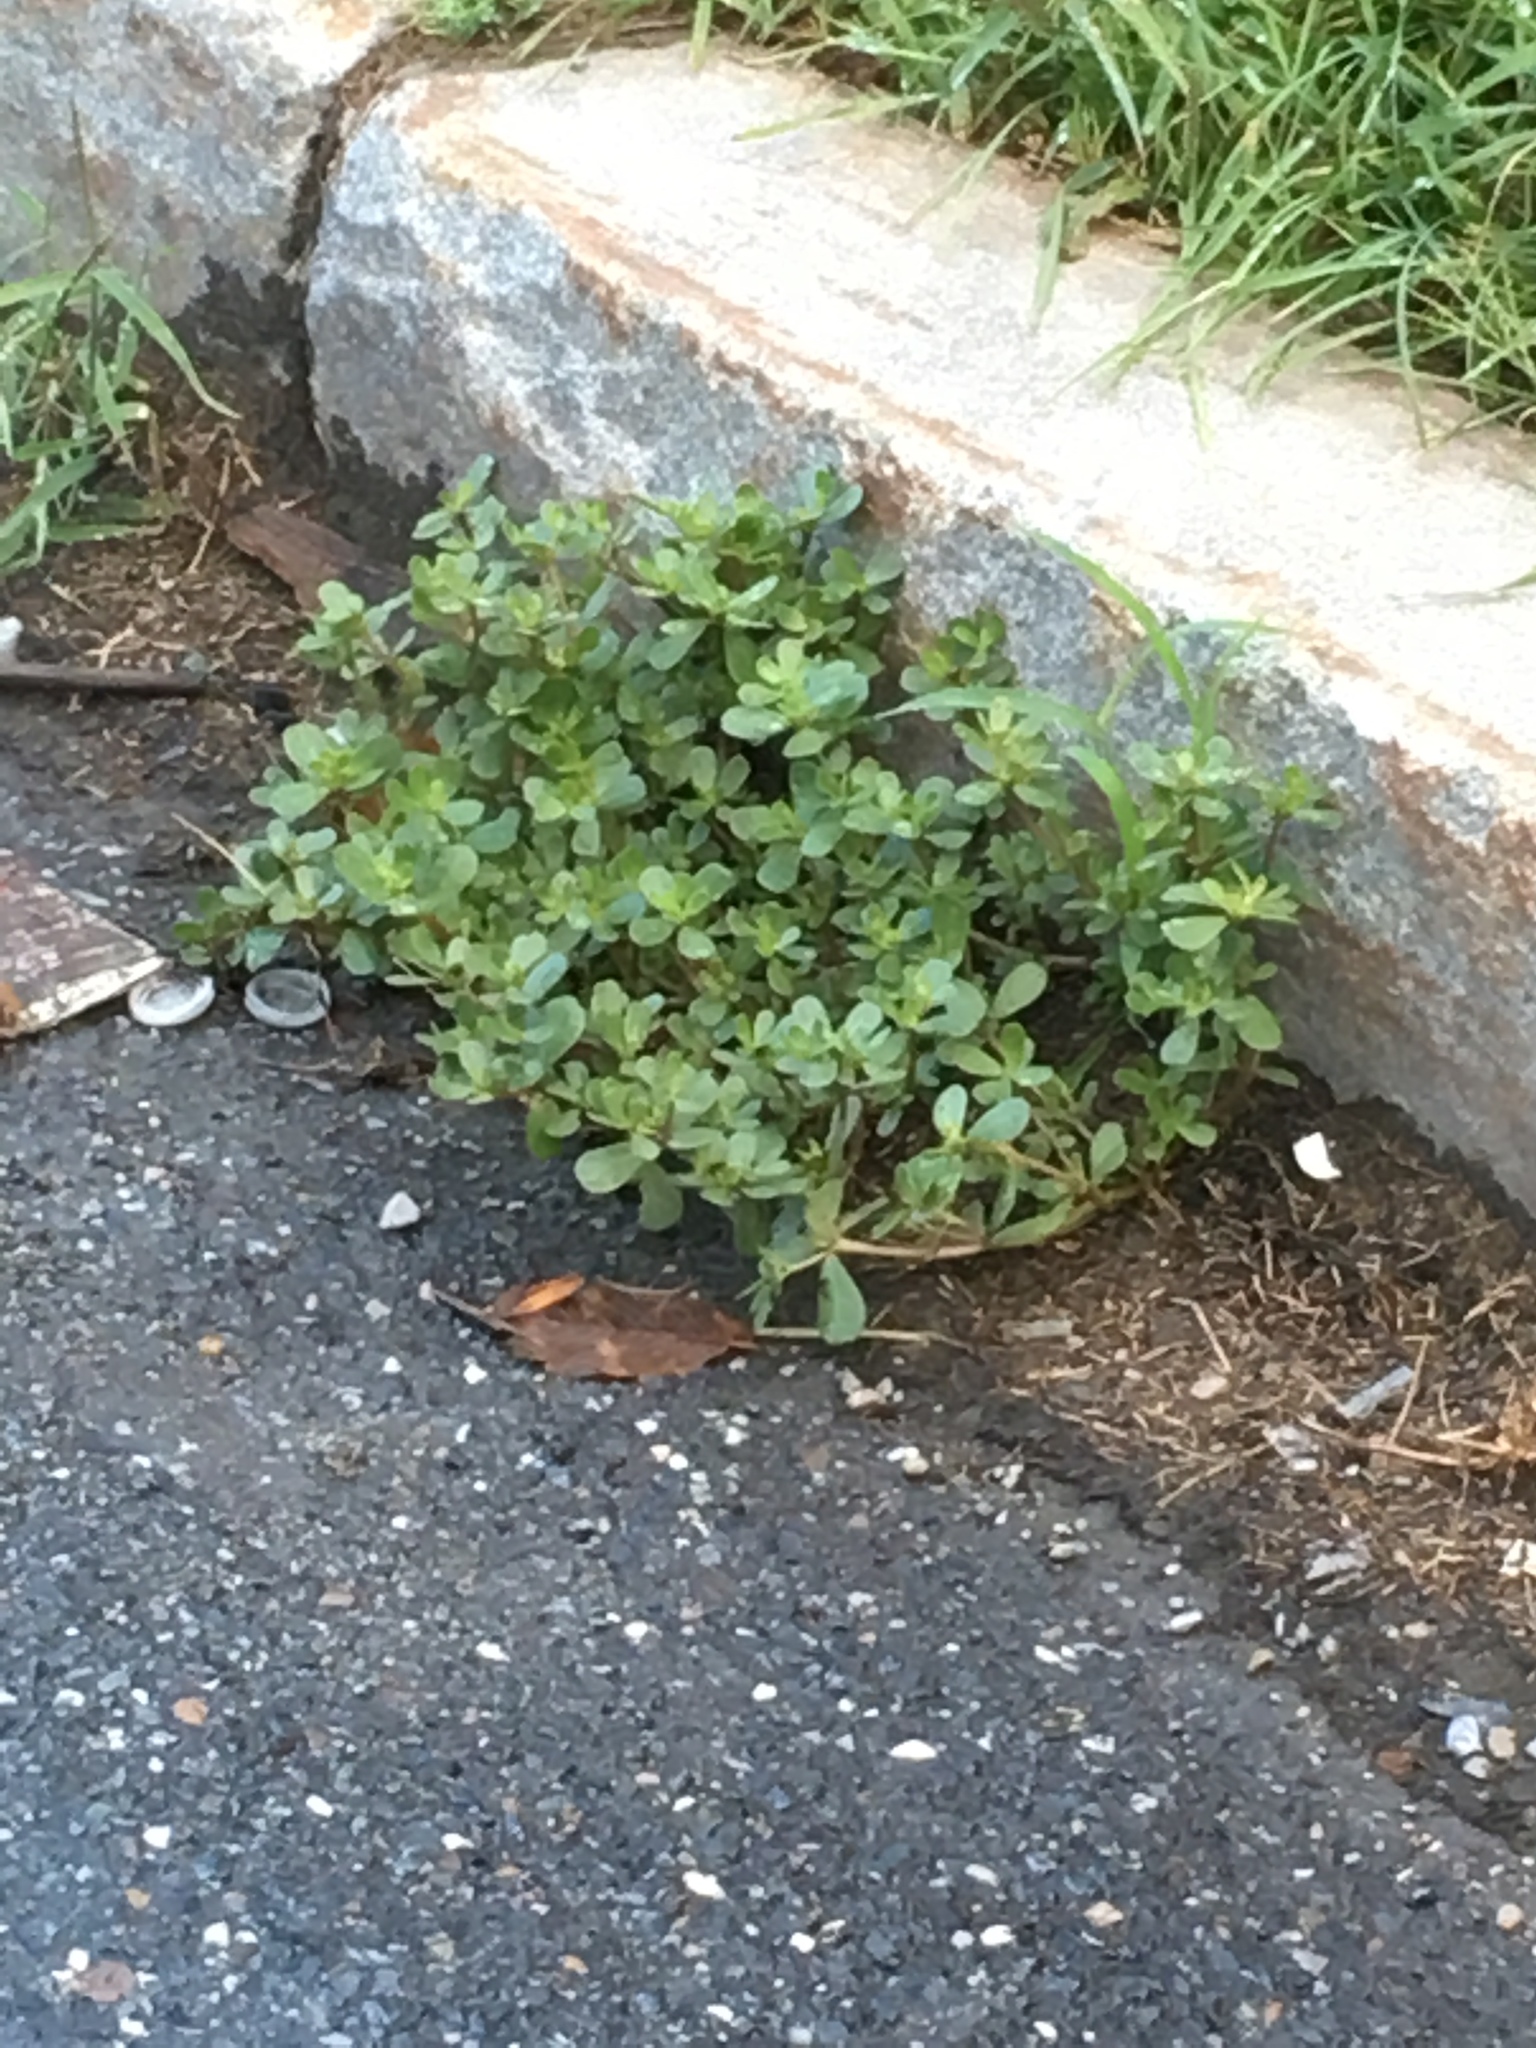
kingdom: Plantae
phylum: Tracheophyta
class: Magnoliopsida
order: Caryophyllales
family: Portulacaceae
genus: Portulaca
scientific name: Portulaca oleracea
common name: Common purslane
